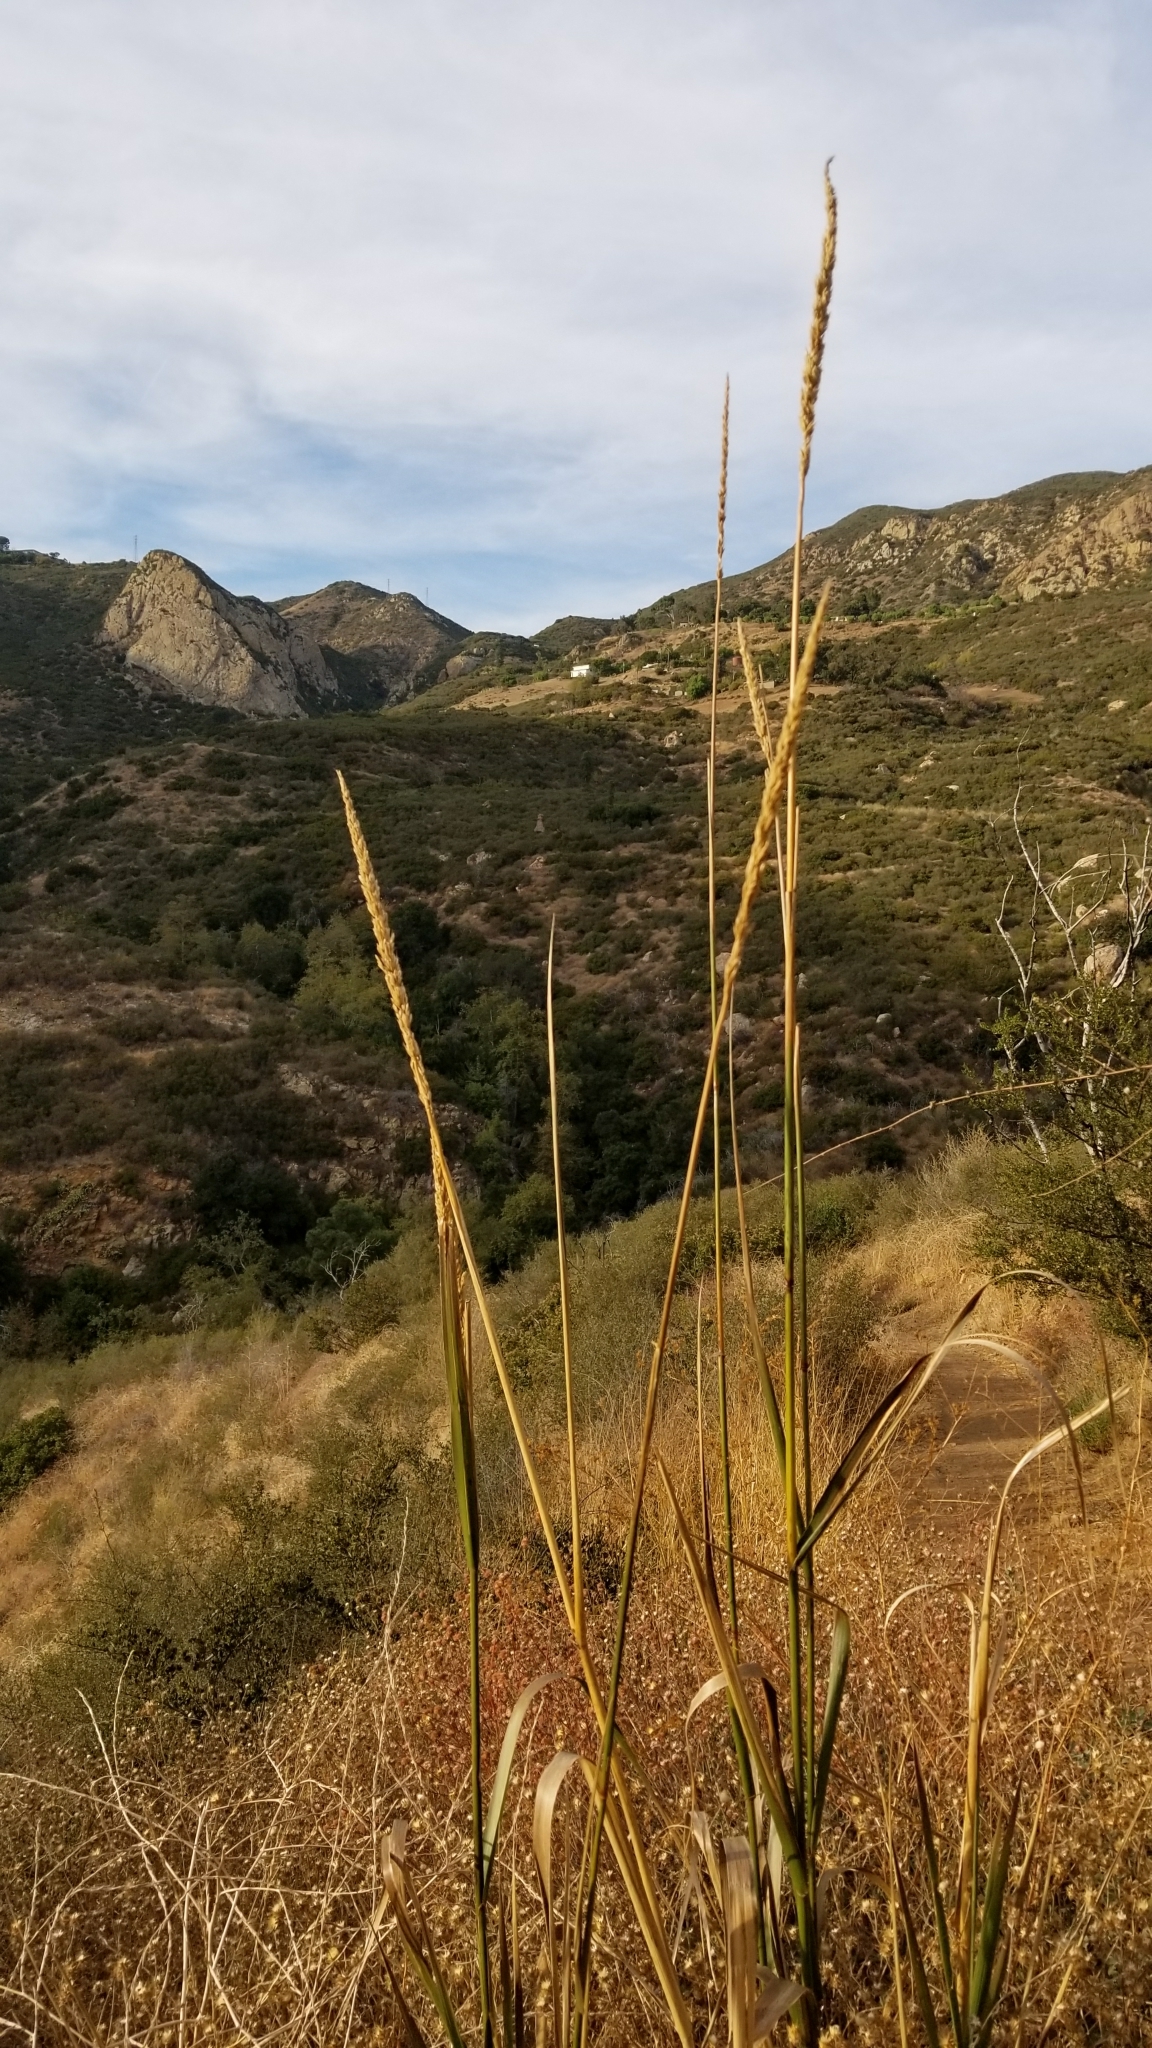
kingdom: Plantae
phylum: Tracheophyta
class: Liliopsida
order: Poales
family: Poaceae
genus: Leymus
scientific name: Leymus condensatus
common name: Giant wild rye
